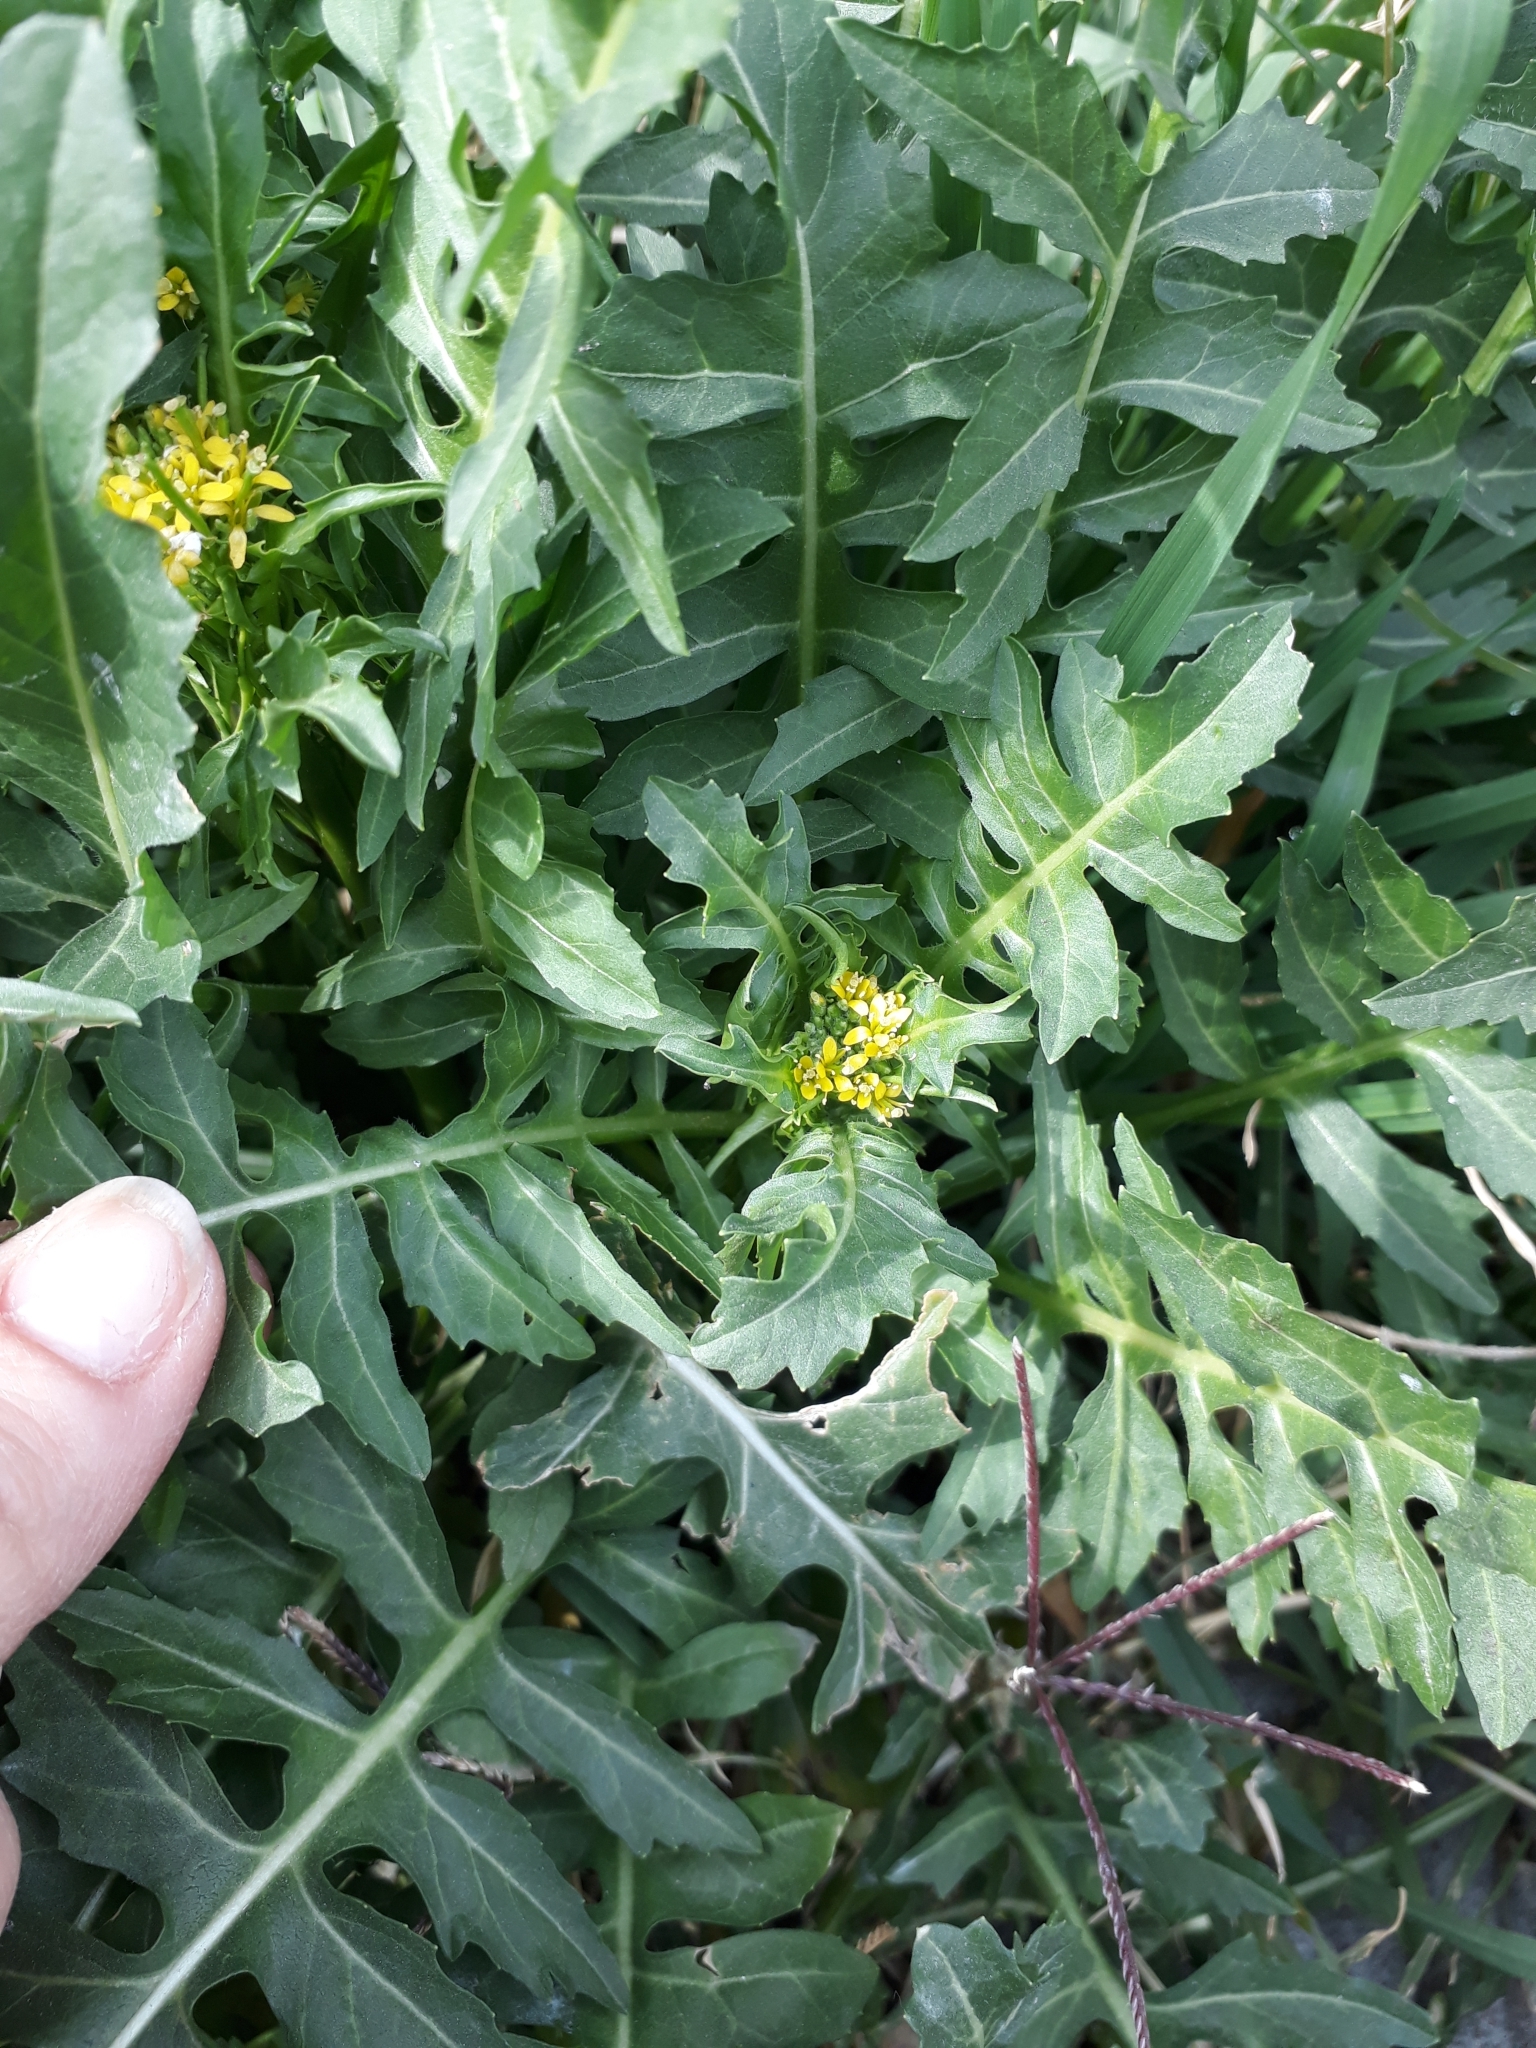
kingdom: Plantae
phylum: Tracheophyta
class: Magnoliopsida
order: Brassicales
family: Brassicaceae
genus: Sisymbrium
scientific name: Sisymbrium irio
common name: London rocket
